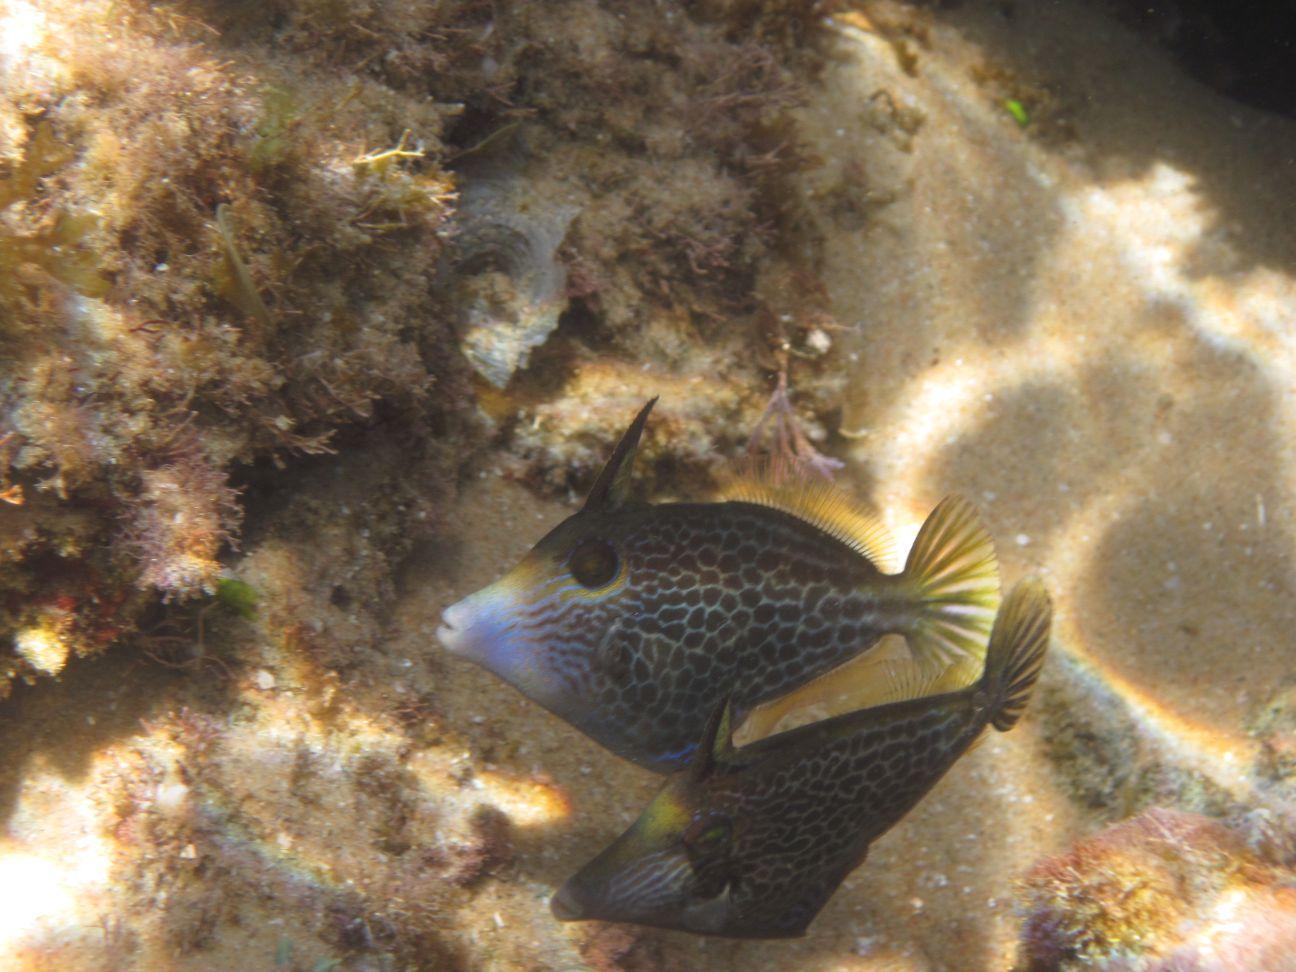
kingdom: Animalia
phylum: Chordata
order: Tetraodontiformes
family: Monacanthidae
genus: Cantherhines
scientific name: Cantherhines pardalis
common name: Honeycomb filefish
